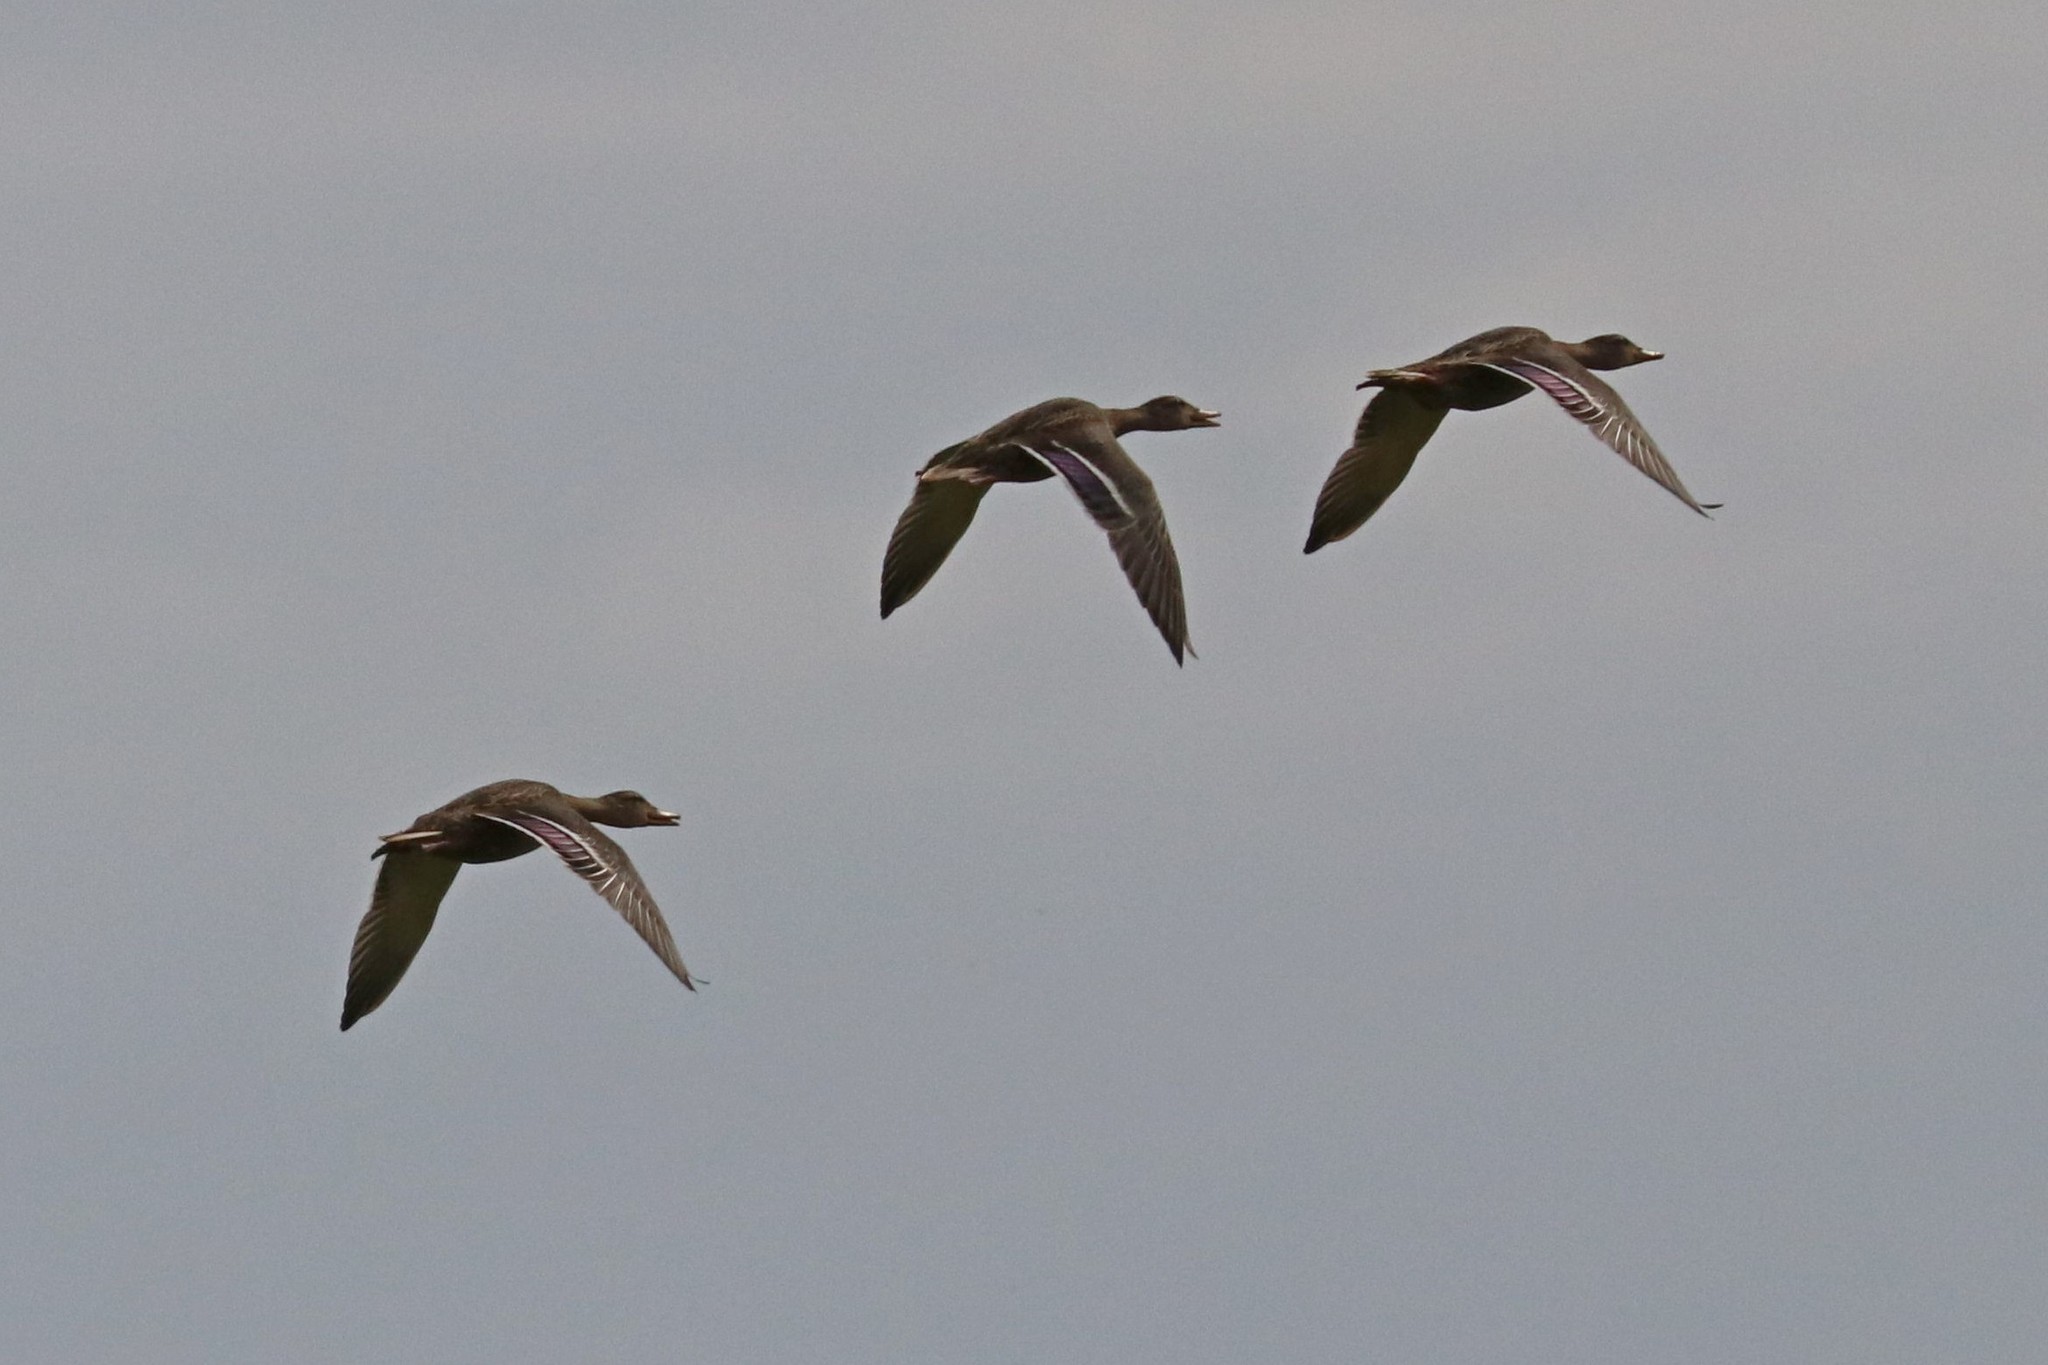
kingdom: Animalia
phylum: Chordata
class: Aves
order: Anseriformes
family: Anatidae
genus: Anas
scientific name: Anas platyrhynchos
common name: Mallard
